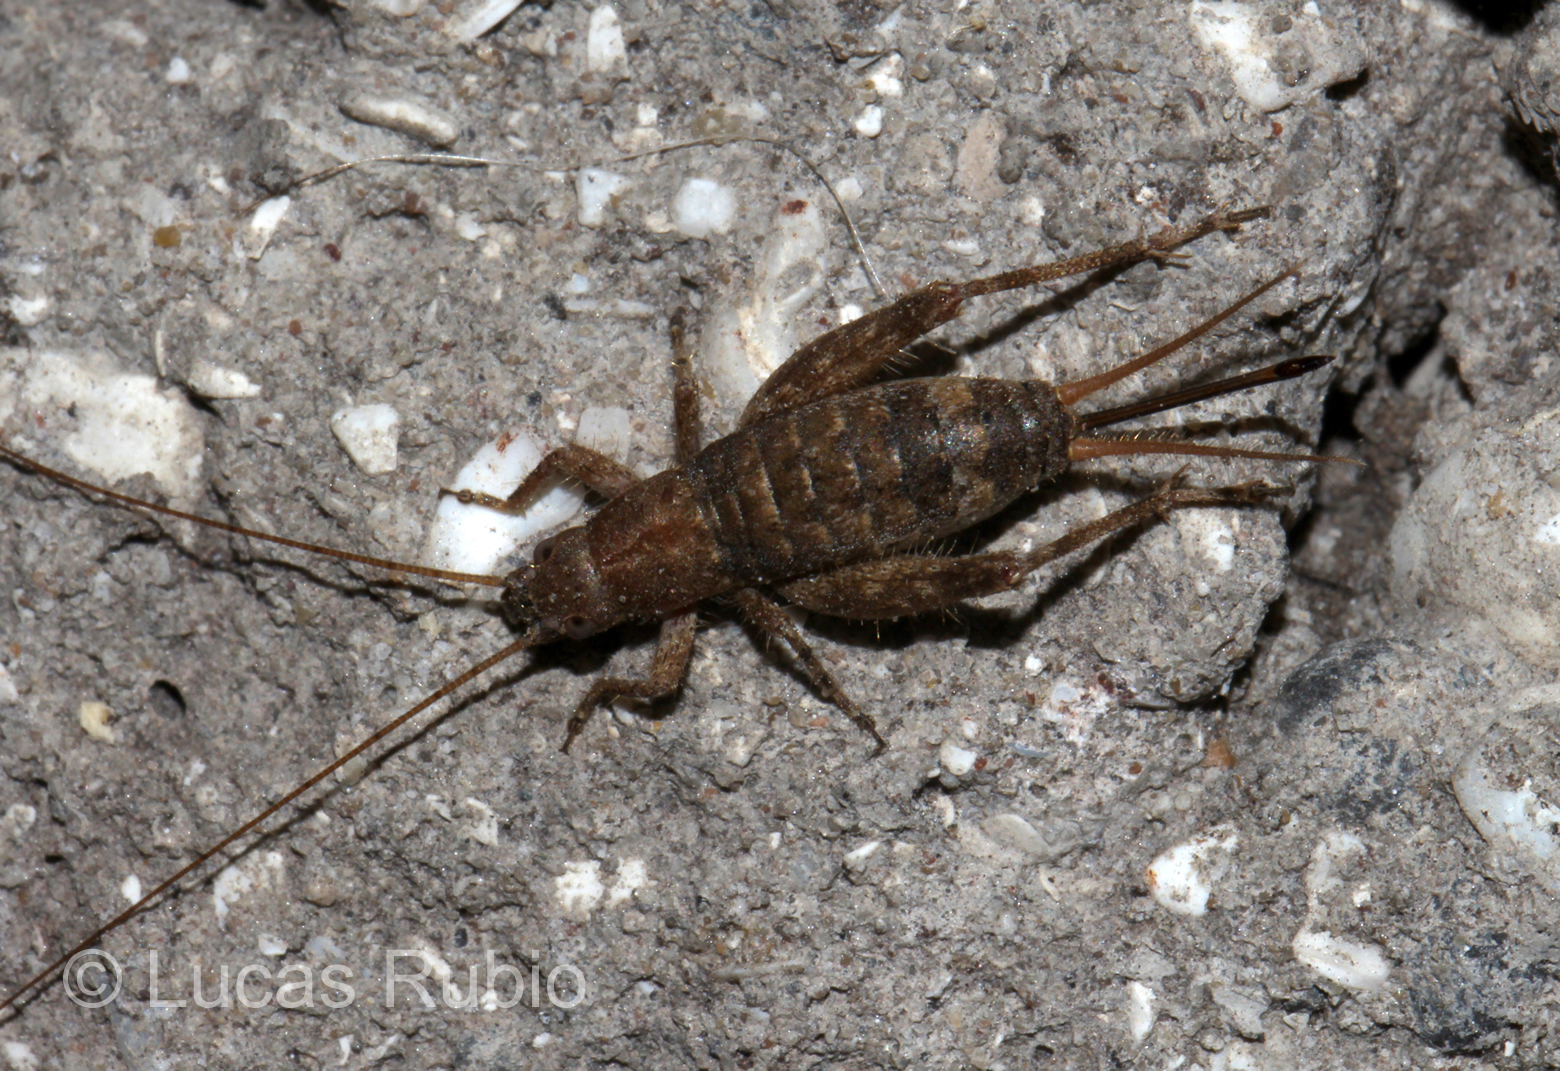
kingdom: Animalia
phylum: Arthropoda
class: Insecta
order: Orthoptera
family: Mogoplistidae
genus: Ornebius
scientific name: Ornebius alatus
